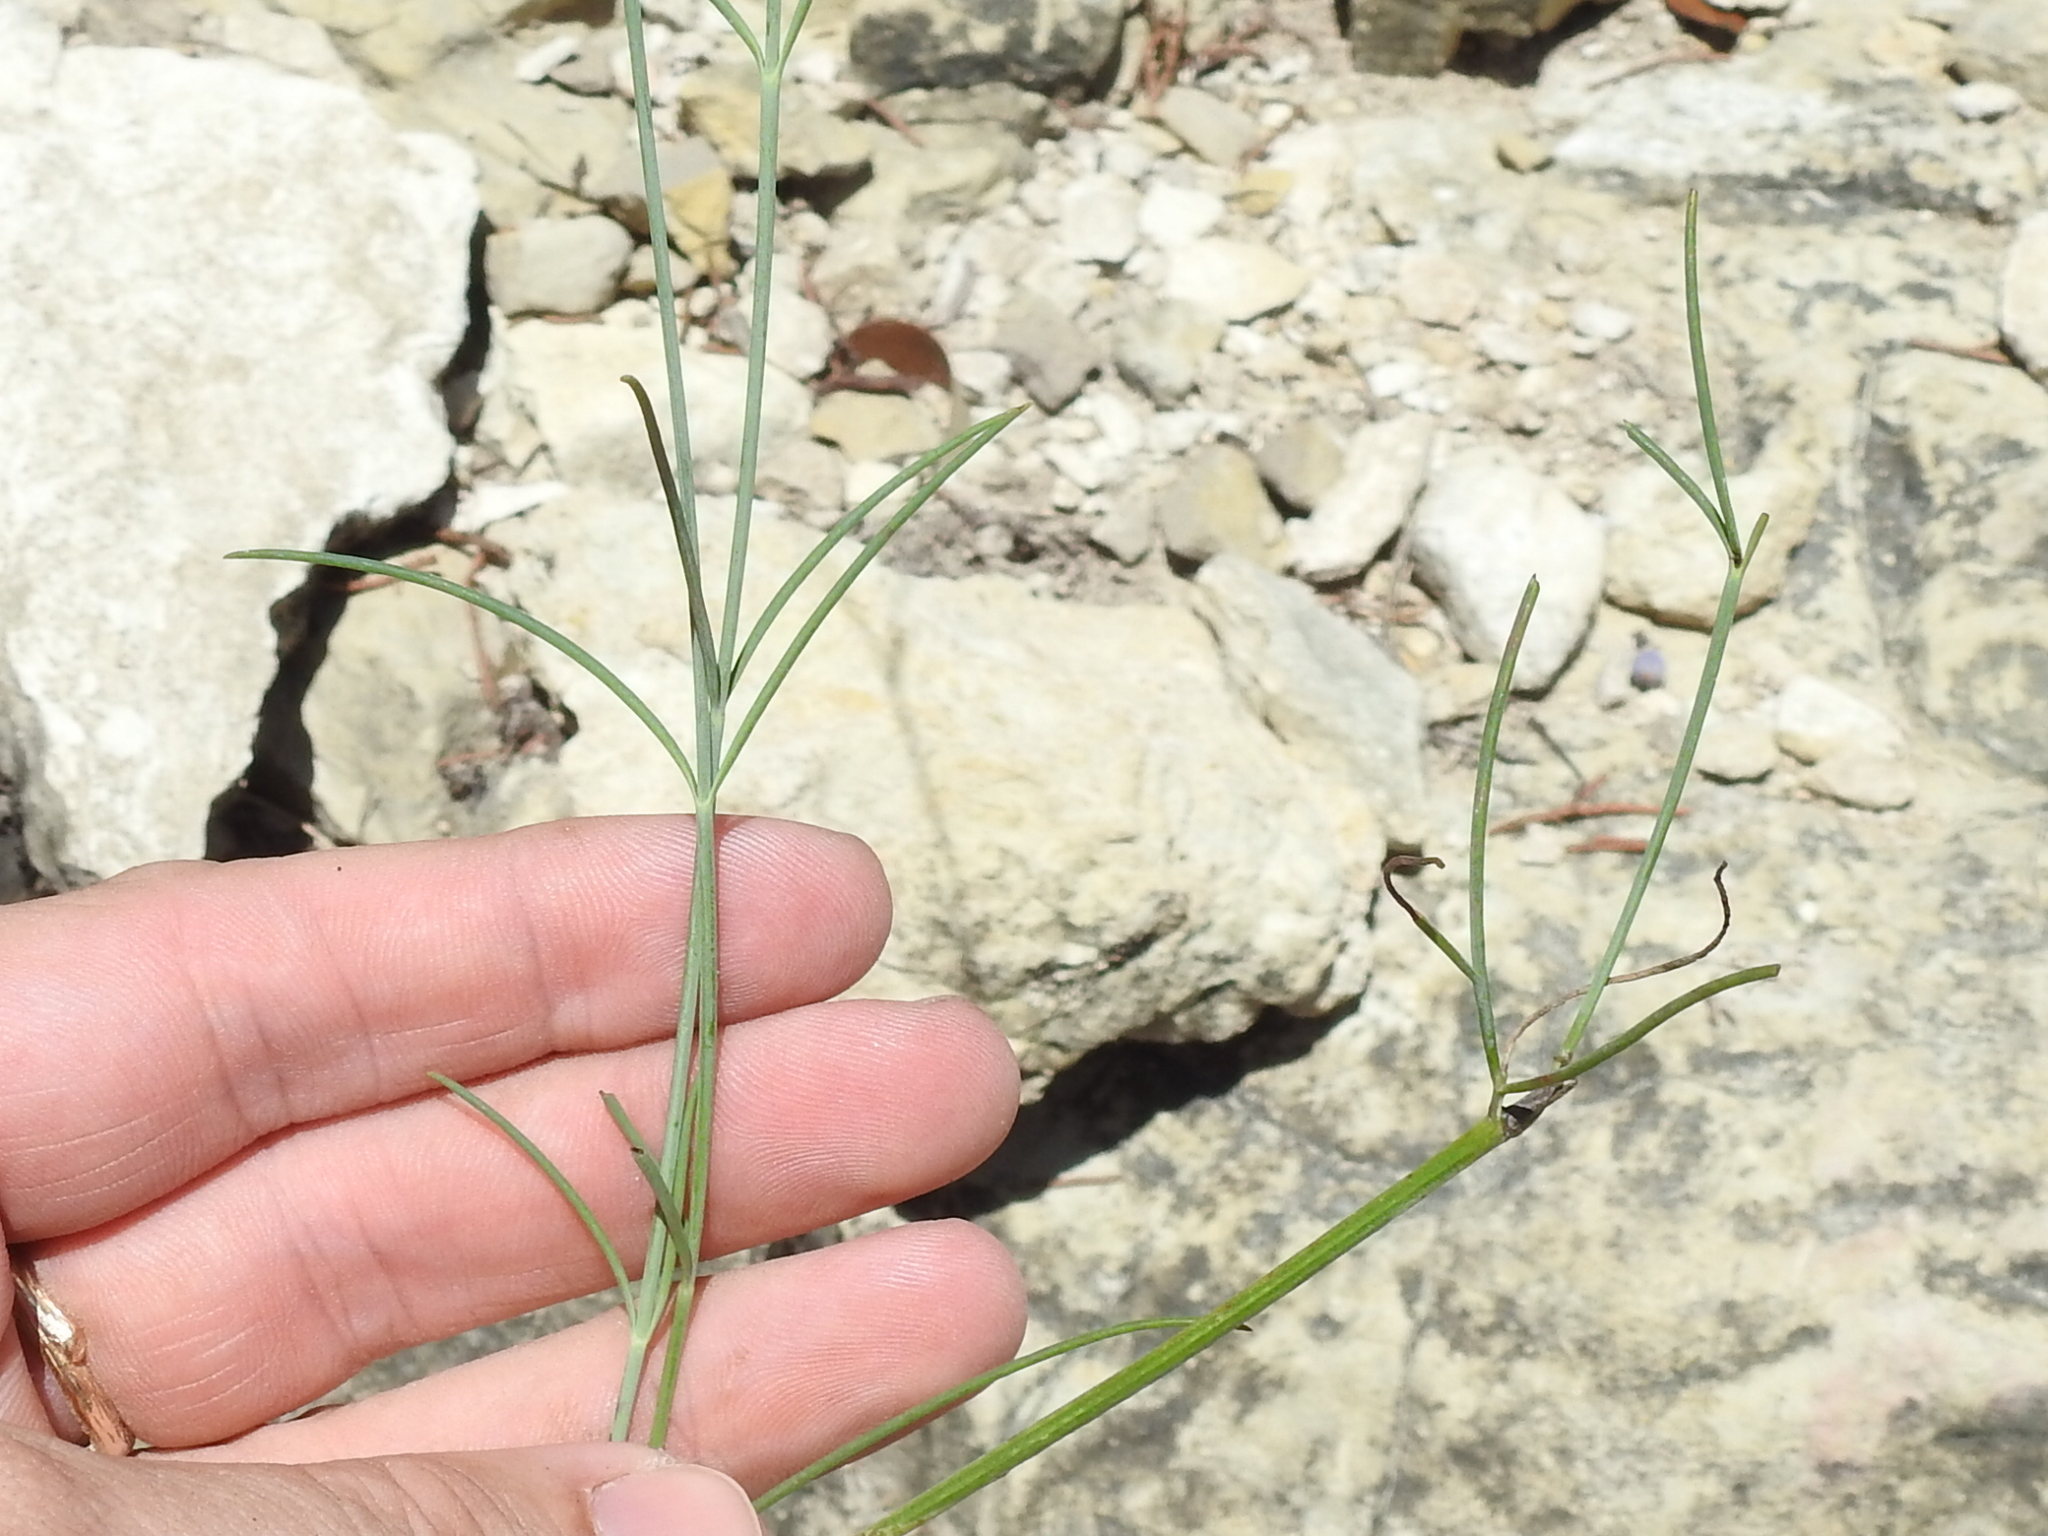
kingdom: Plantae
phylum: Tracheophyta
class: Magnoliopsida
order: Asterales
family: Asteraceae
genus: Thelesperma
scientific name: Thelesperma simplicifolium
